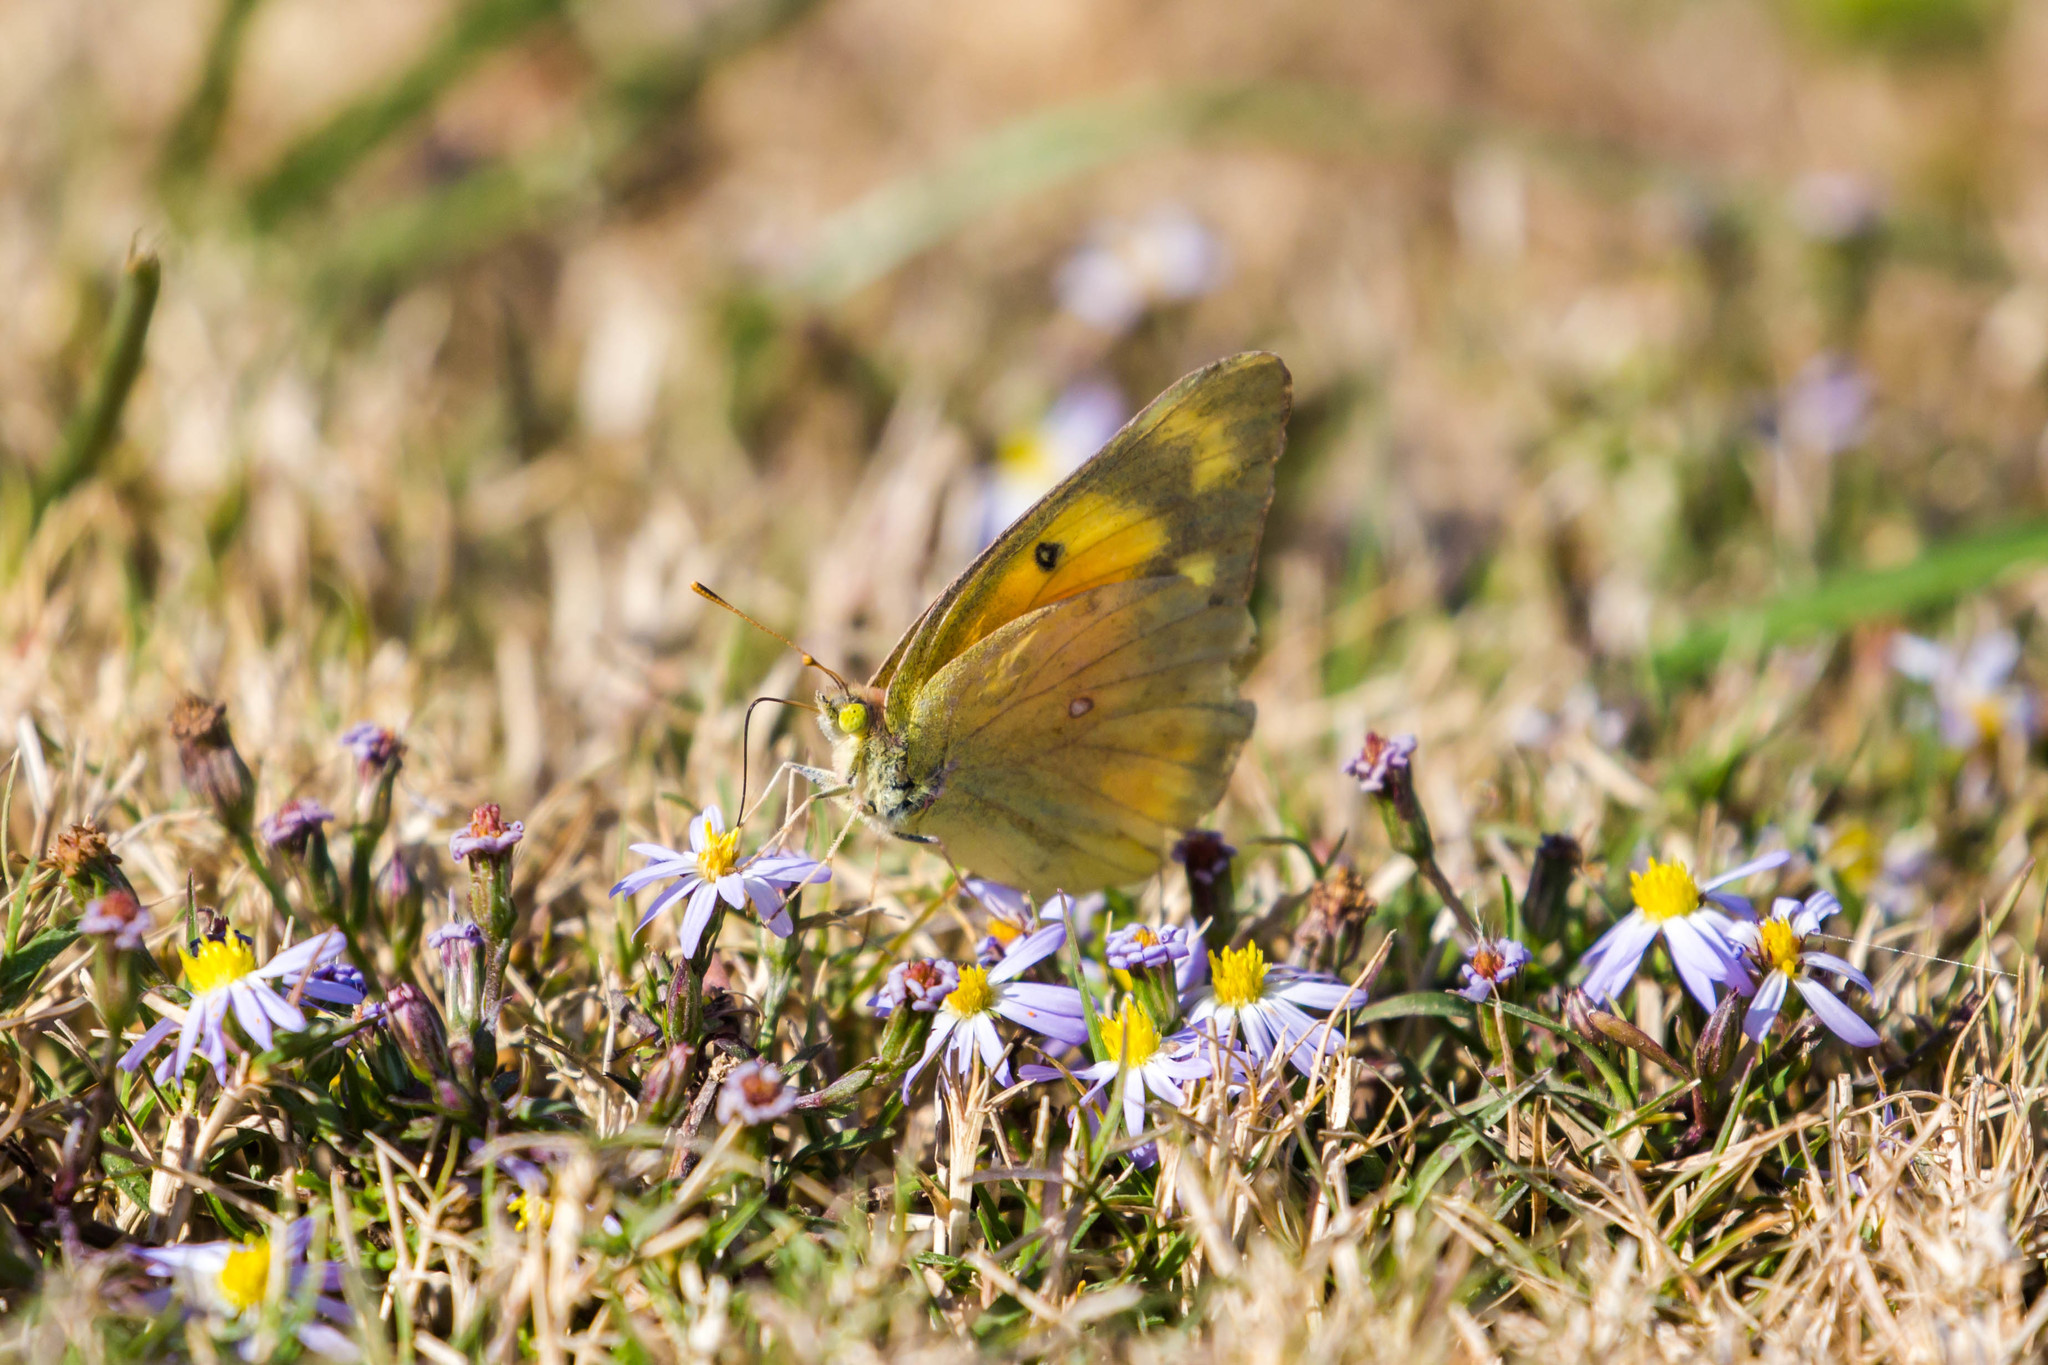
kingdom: Animalia
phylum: Arthropoda
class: Insecta
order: Lepidoptera
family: Pieridae
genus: Colias
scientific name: Colias eurytheme
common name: Alfalfa butterfly
